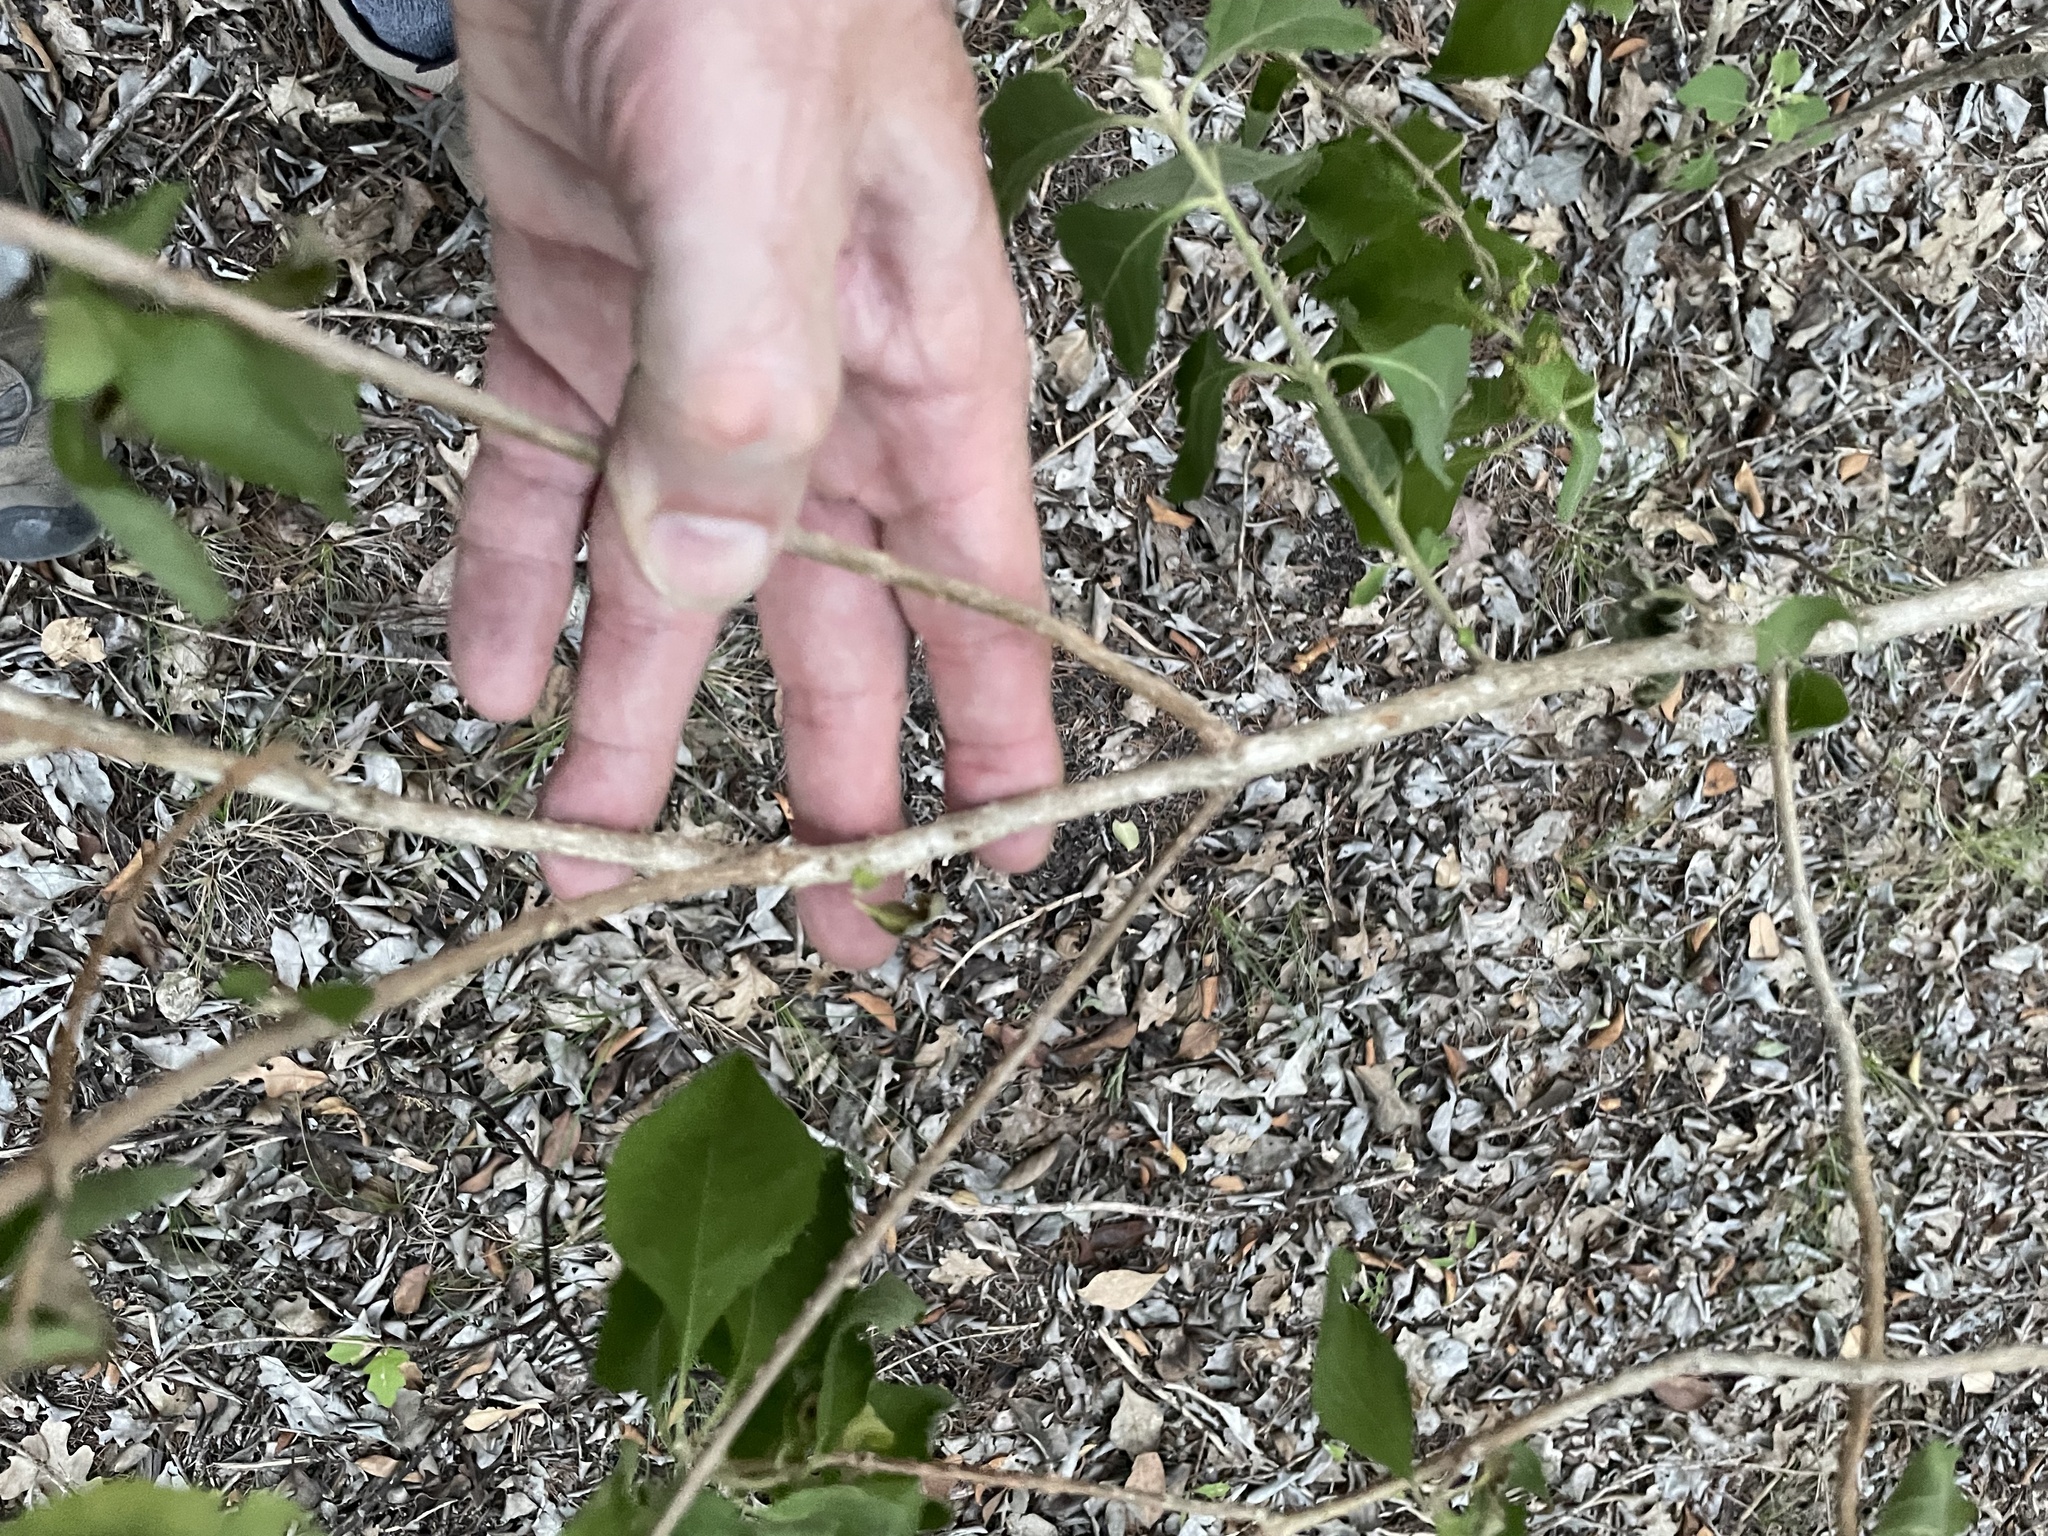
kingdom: Plantae
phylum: Tracheophyta
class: Magnoliopsida
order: Lamiales
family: Lamiaceae
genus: Callicarpa
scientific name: Callicarpa americana
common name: American beautyberry
